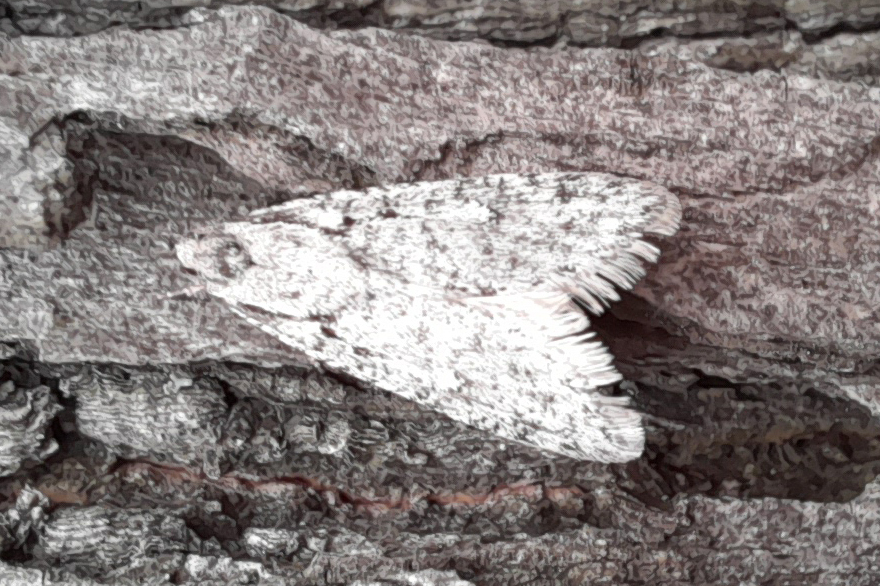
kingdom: Animalia
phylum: Arthropoda
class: Insecta
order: Lepidoptera
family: Depressariidae
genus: Semioscopis
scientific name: Semioscopis avellanella
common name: Early flat-body
